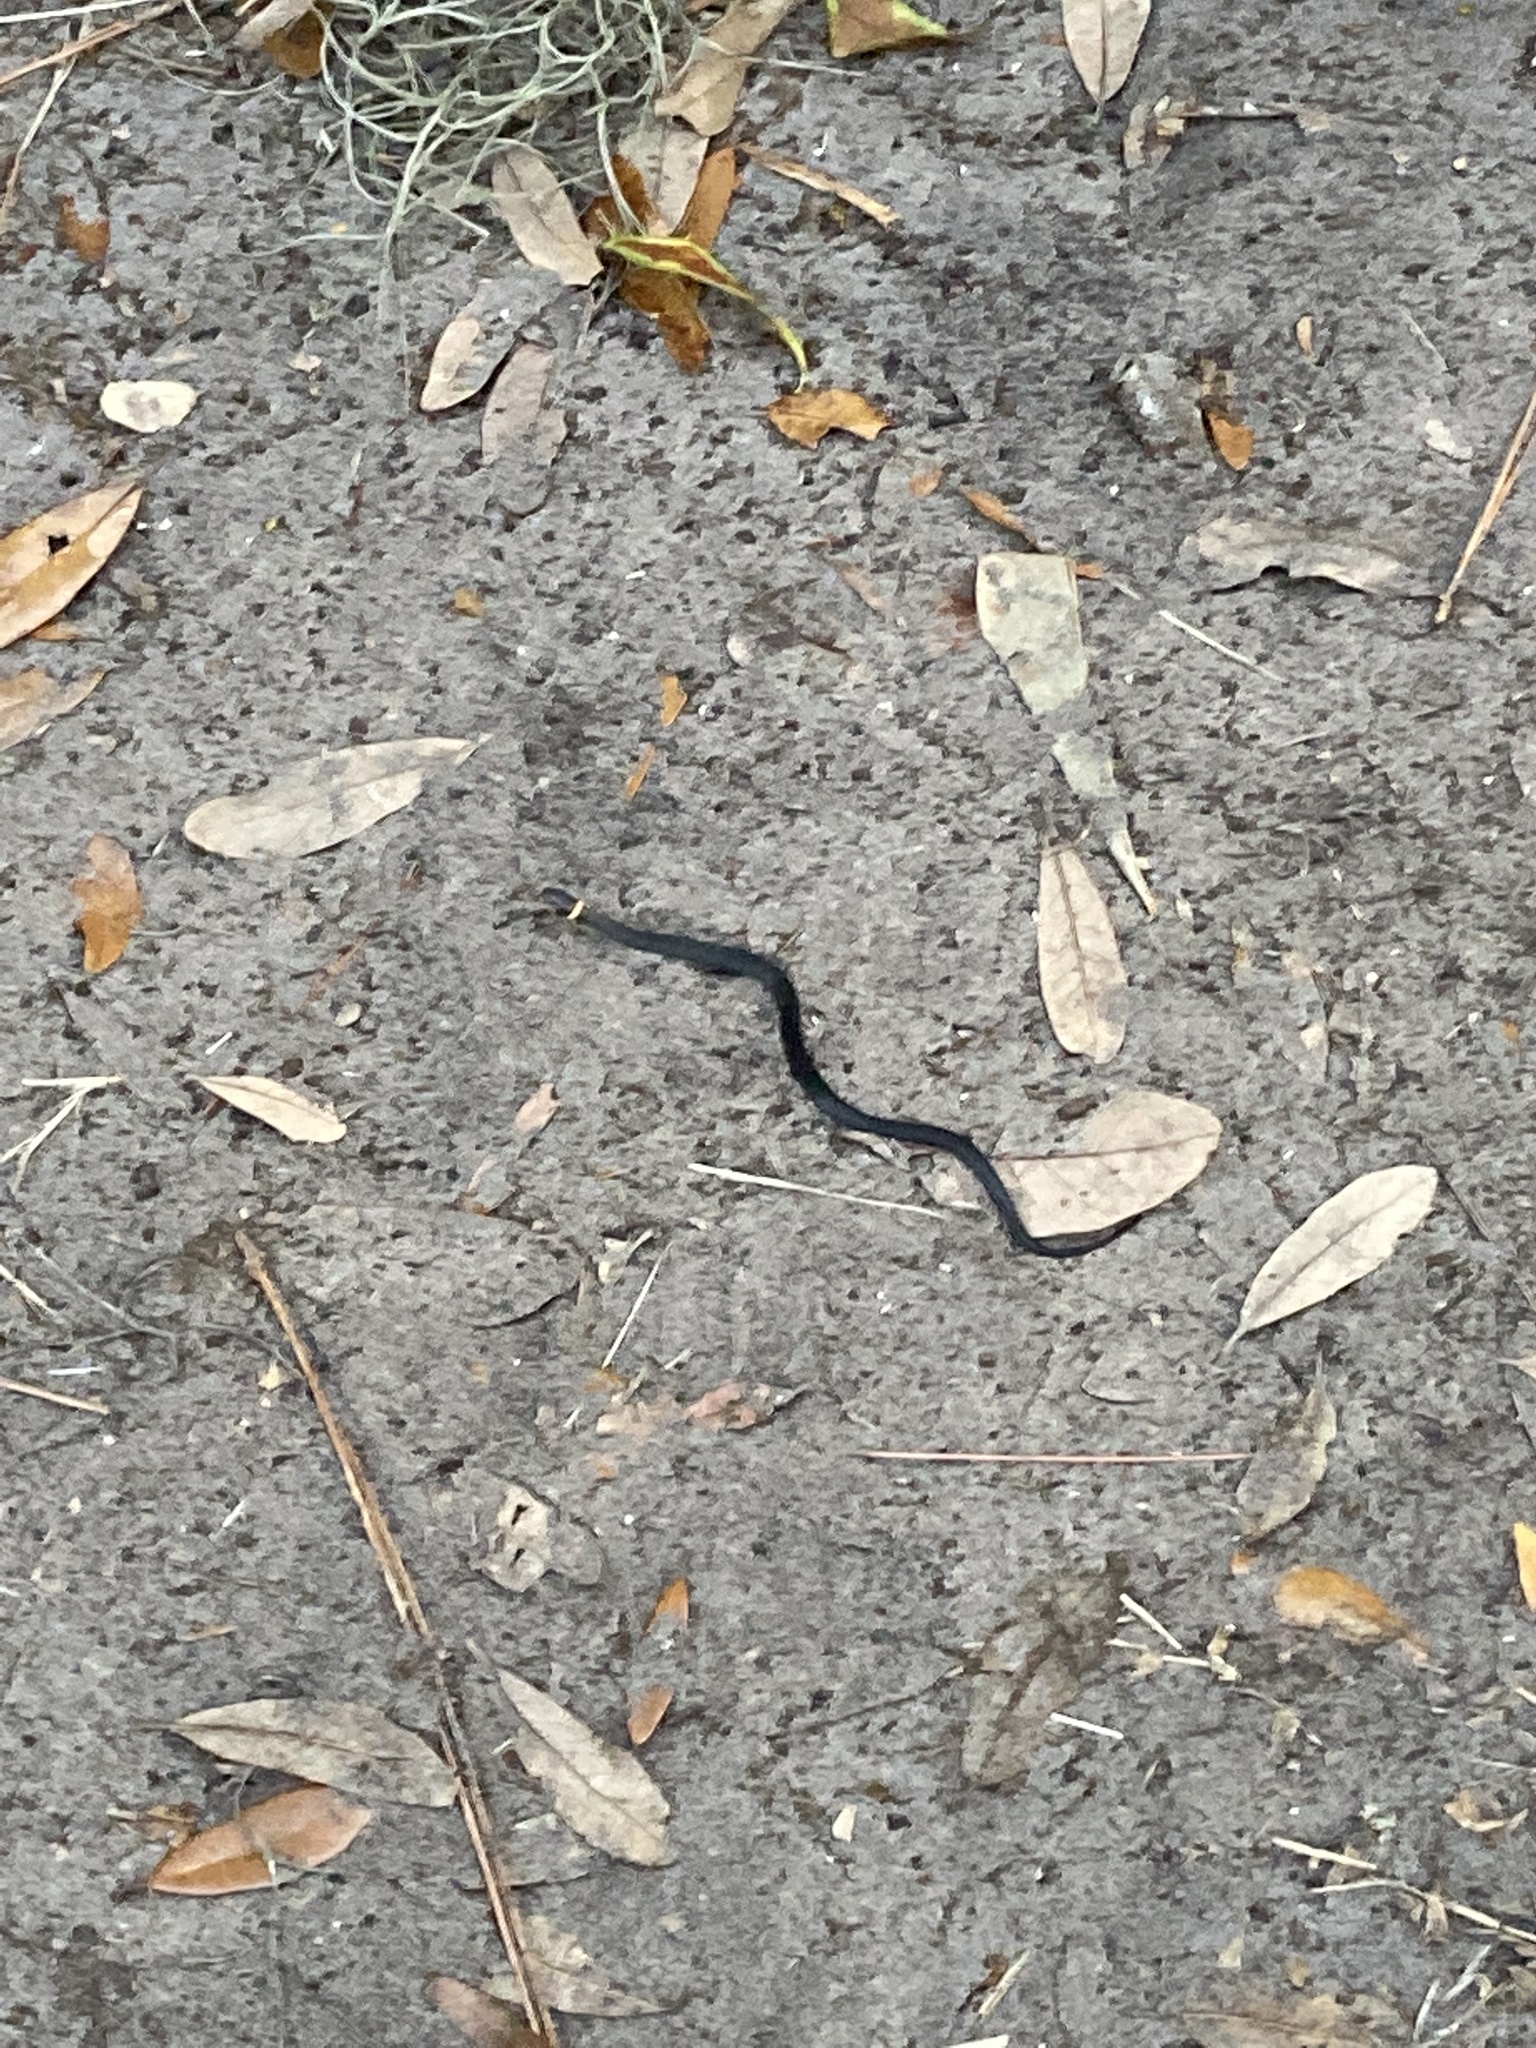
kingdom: Animalia
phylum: Chordata
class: Squamata
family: Colubridae
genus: Diadophis
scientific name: Diadophis punctatus
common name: Ringneck snake
